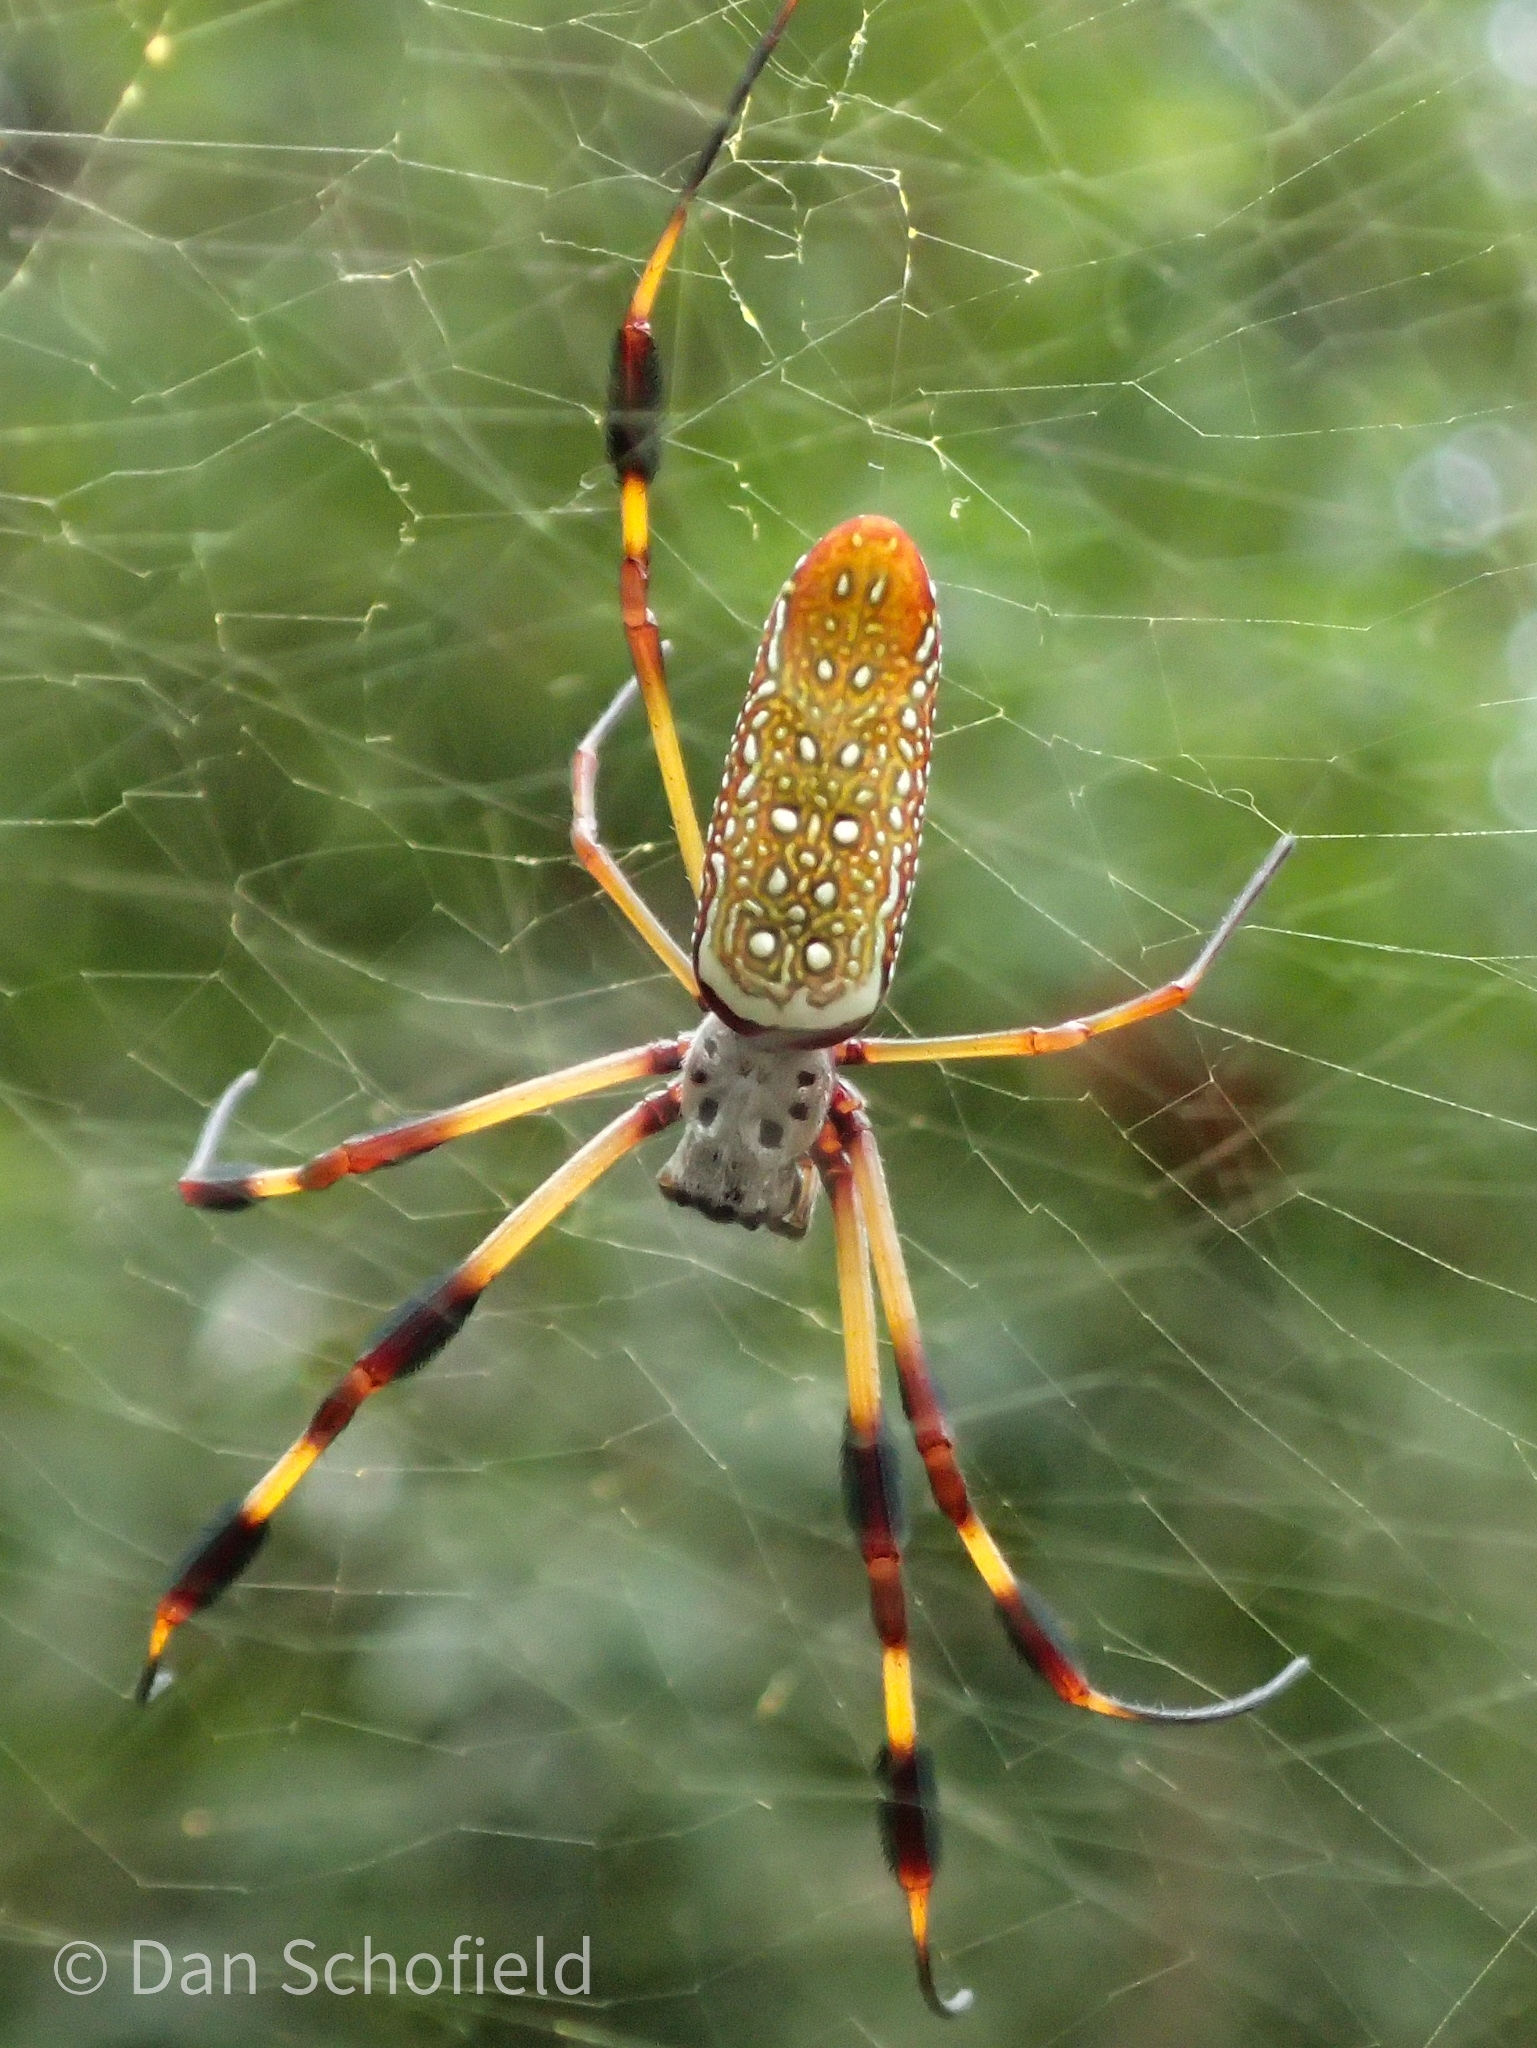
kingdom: Animalia
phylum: Arthropoda
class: Arachnida
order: Araneae
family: Araneidae
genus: Trichonephila
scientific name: Trichonephila clavipes
